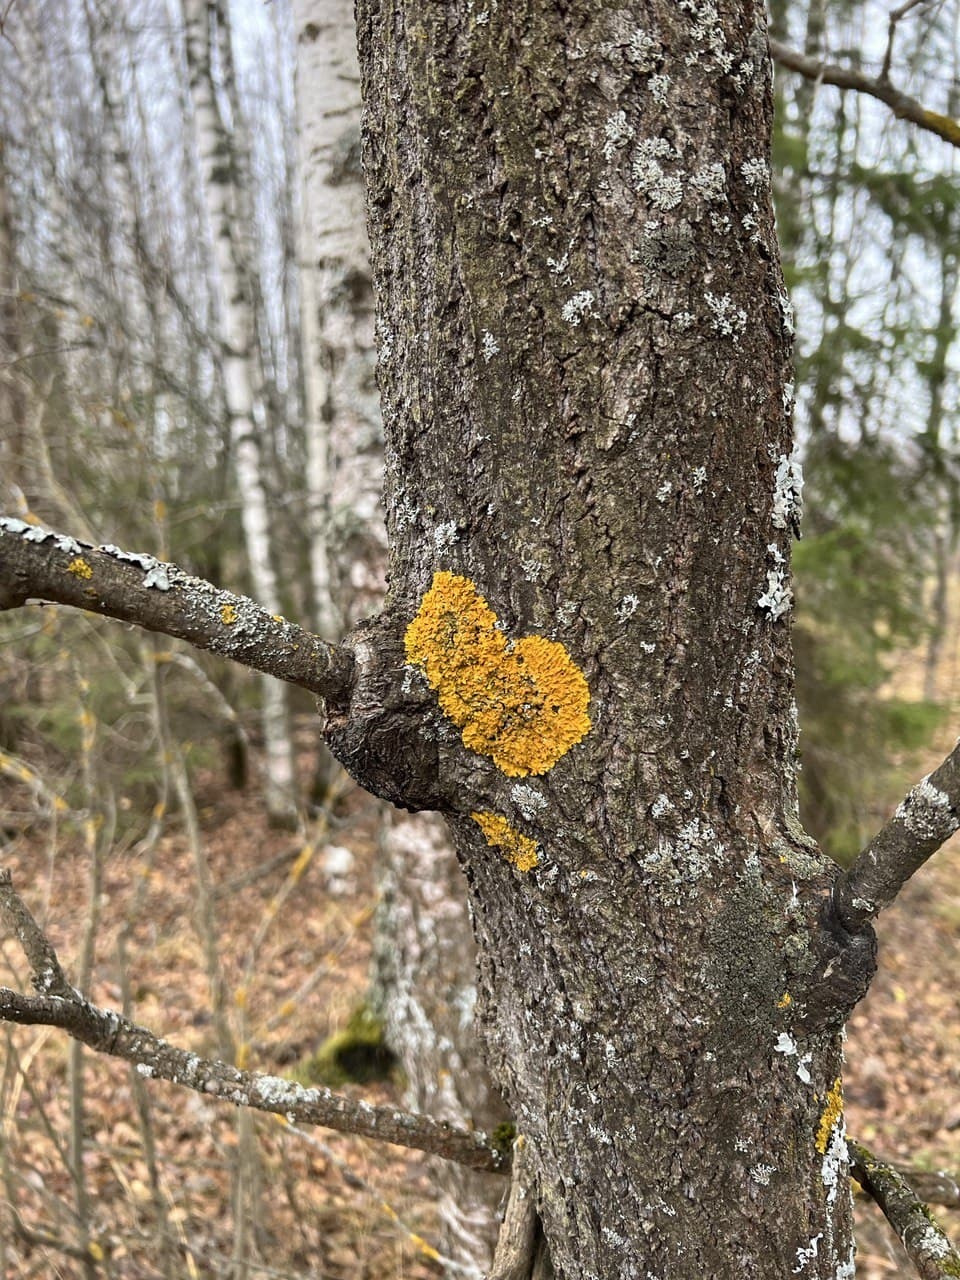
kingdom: Fungi
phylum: Ascomycota
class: Lecanoromycetes
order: Teloschistales
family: Teloschistaceae
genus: Xanthoria
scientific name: Xanthoria parietina
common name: Common orange lichen
